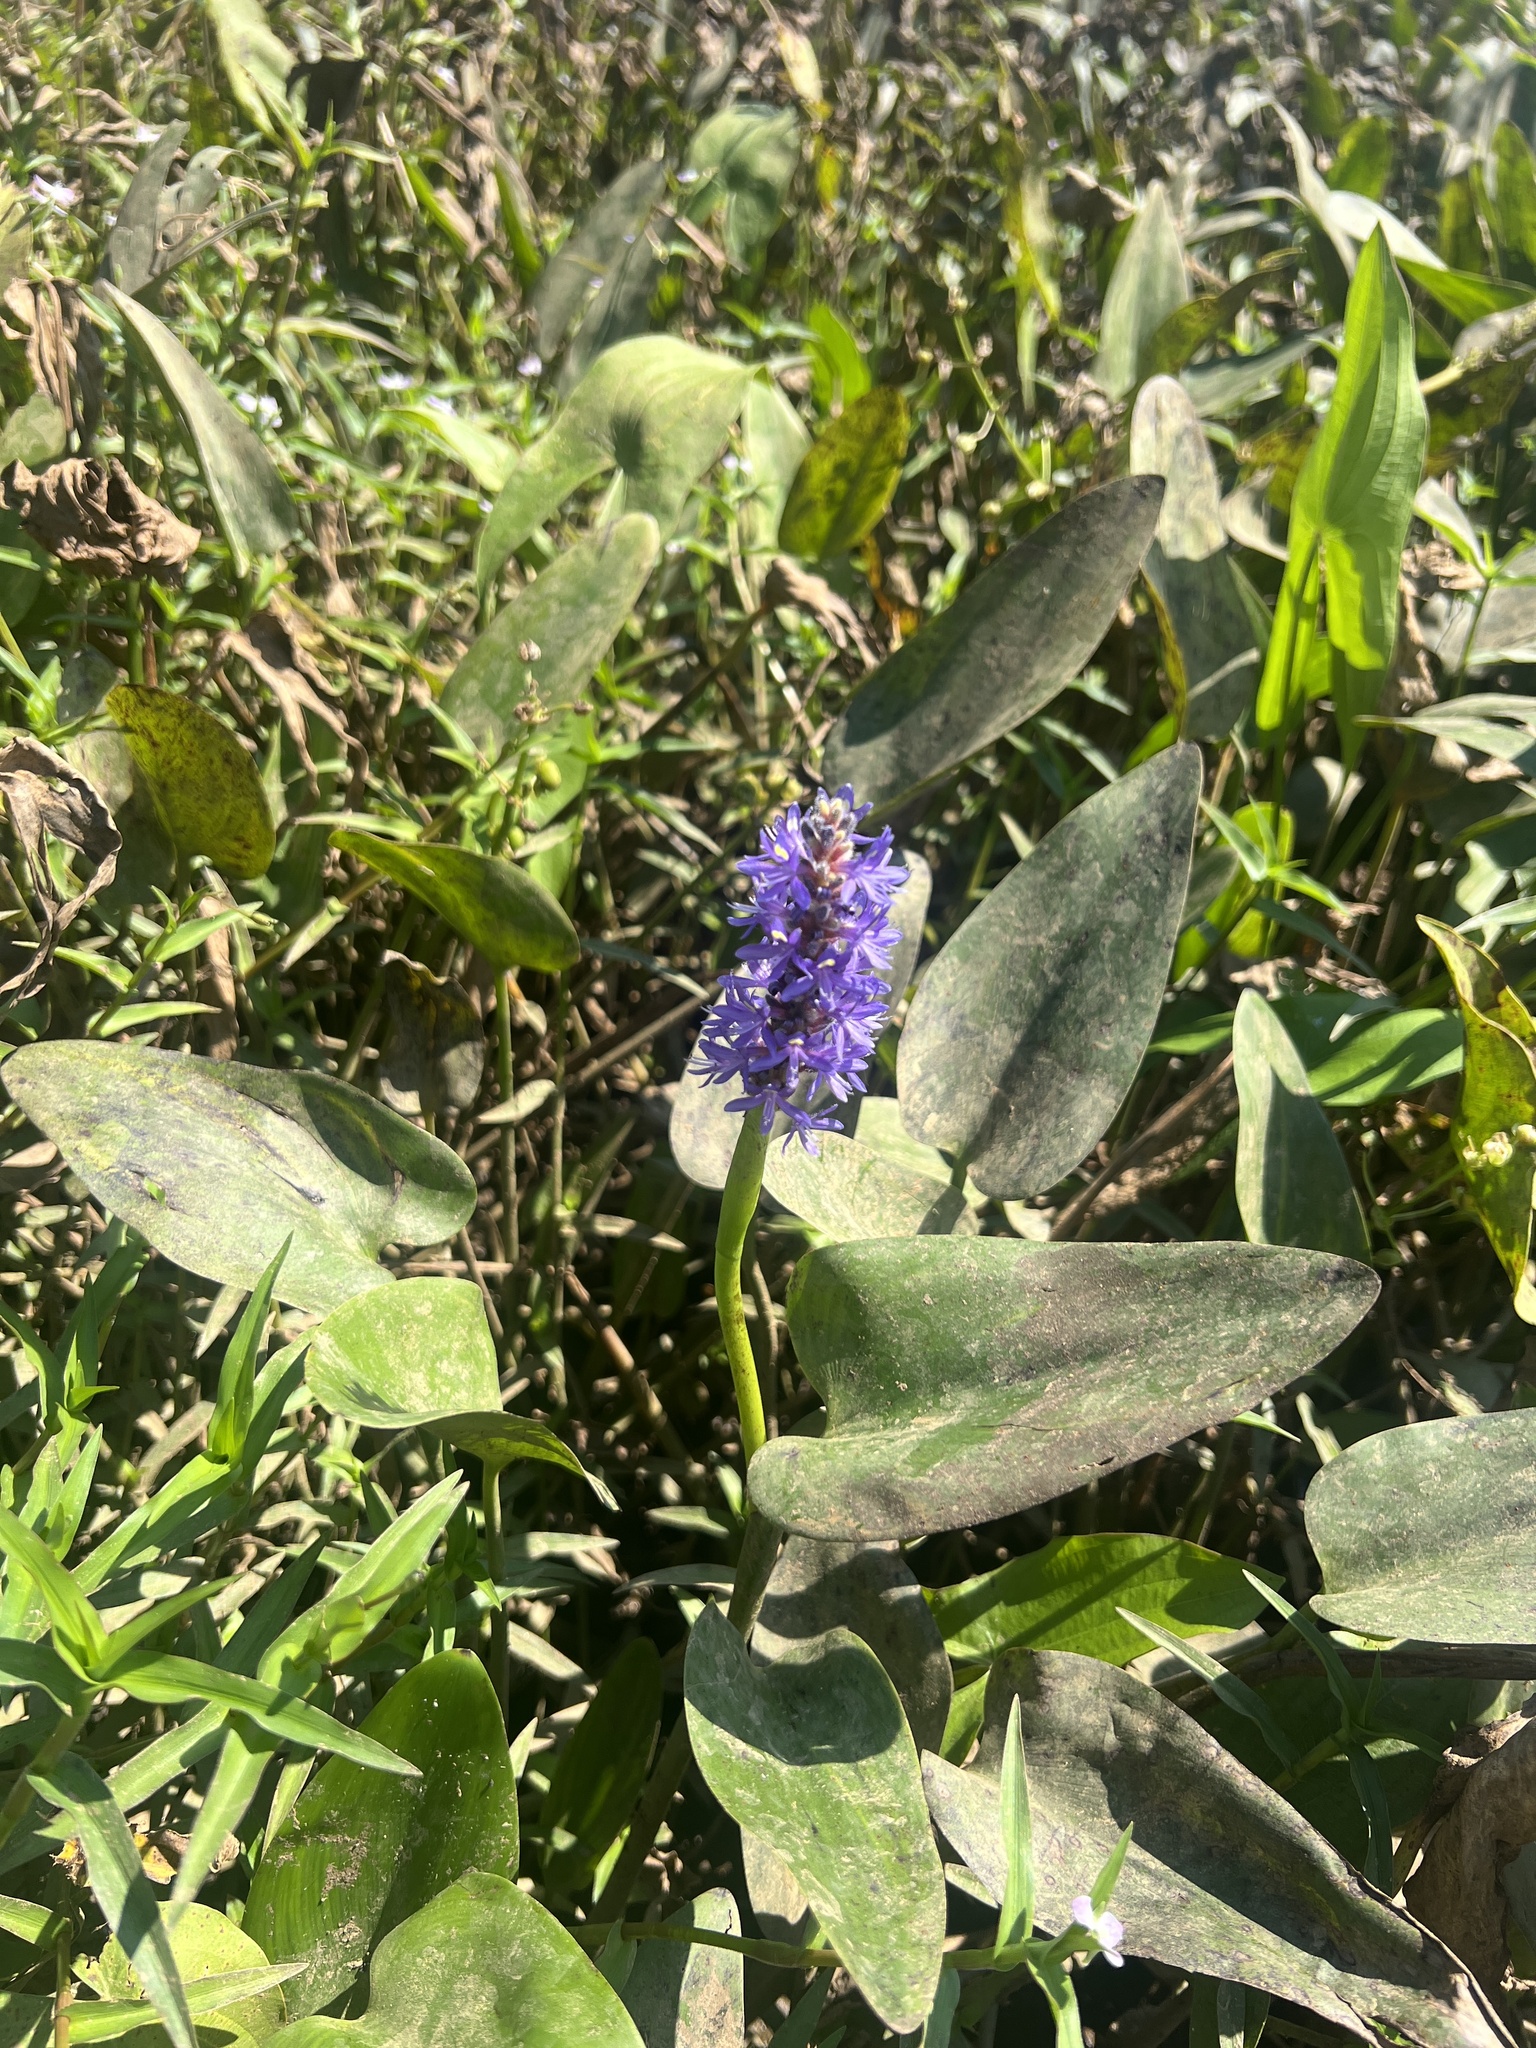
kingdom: Plantae
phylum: Tracheophyta
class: Liliopsida
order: Commelinales
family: Pontederiaceae
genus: Pontederia
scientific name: Pontederia cordata
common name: Pickerelweed
